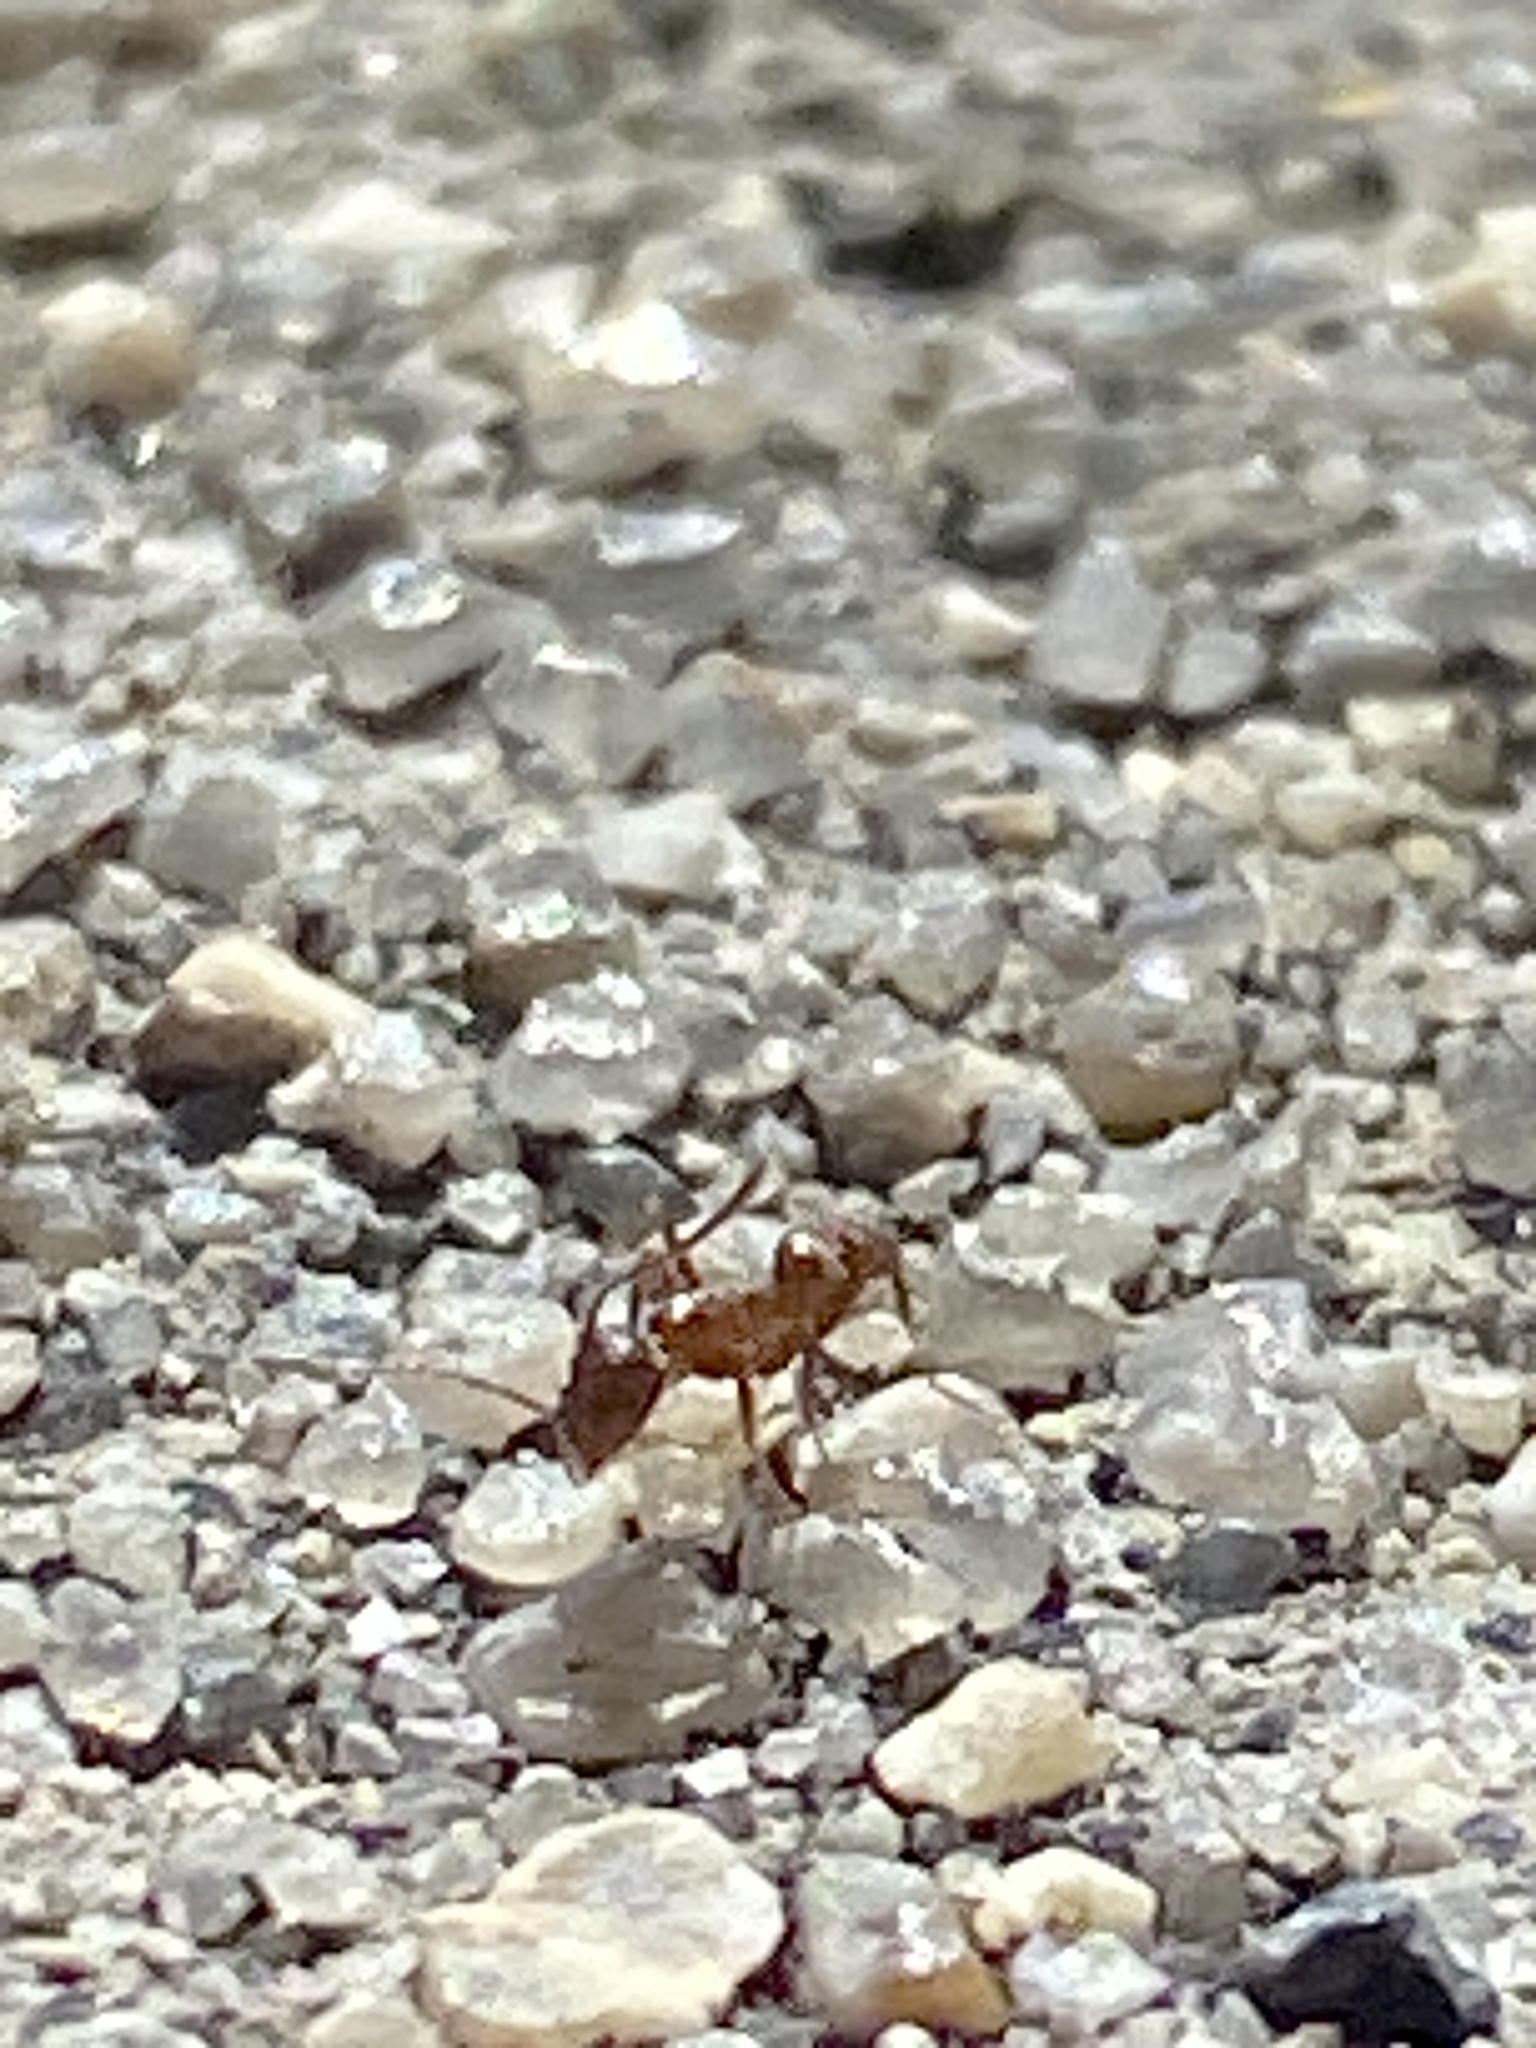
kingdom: Animalia
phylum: Arthropoda
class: Insecta
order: Hymenoptera
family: Formicidae
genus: Linepithema
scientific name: Linepithema humile
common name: Argentine ant
